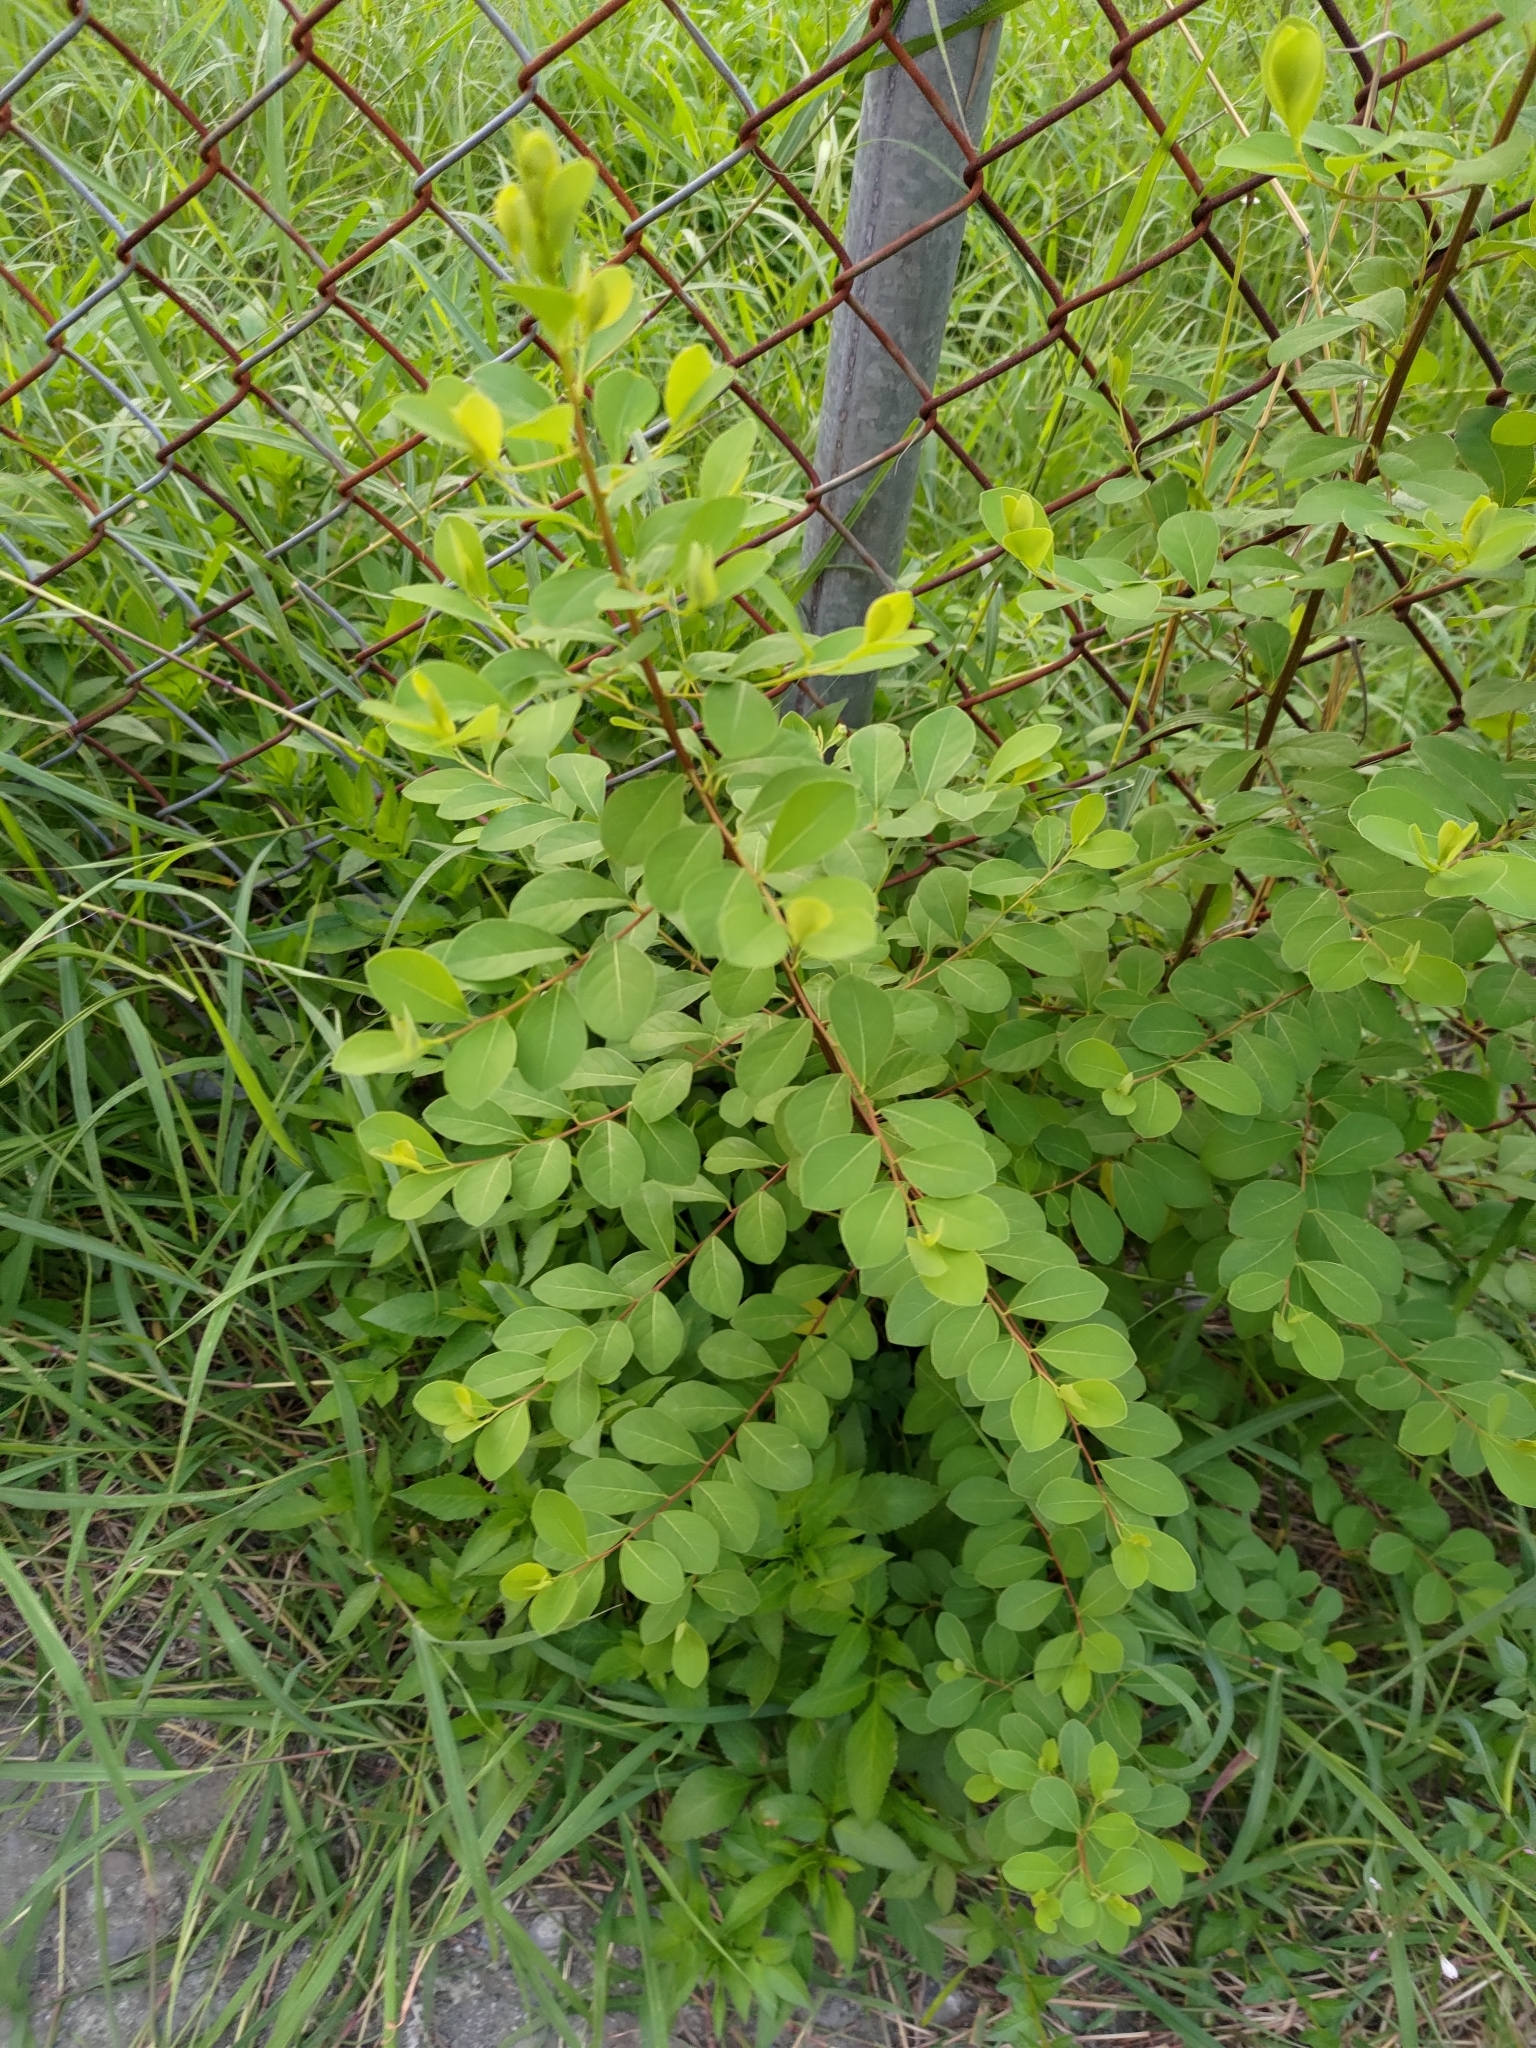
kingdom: Plantae
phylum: Tracheophyta
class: Magnoliopsida
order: Malpighiales
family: Phyllanthaceae
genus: Flueggea
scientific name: Flueggea virosa
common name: Common bushweed
